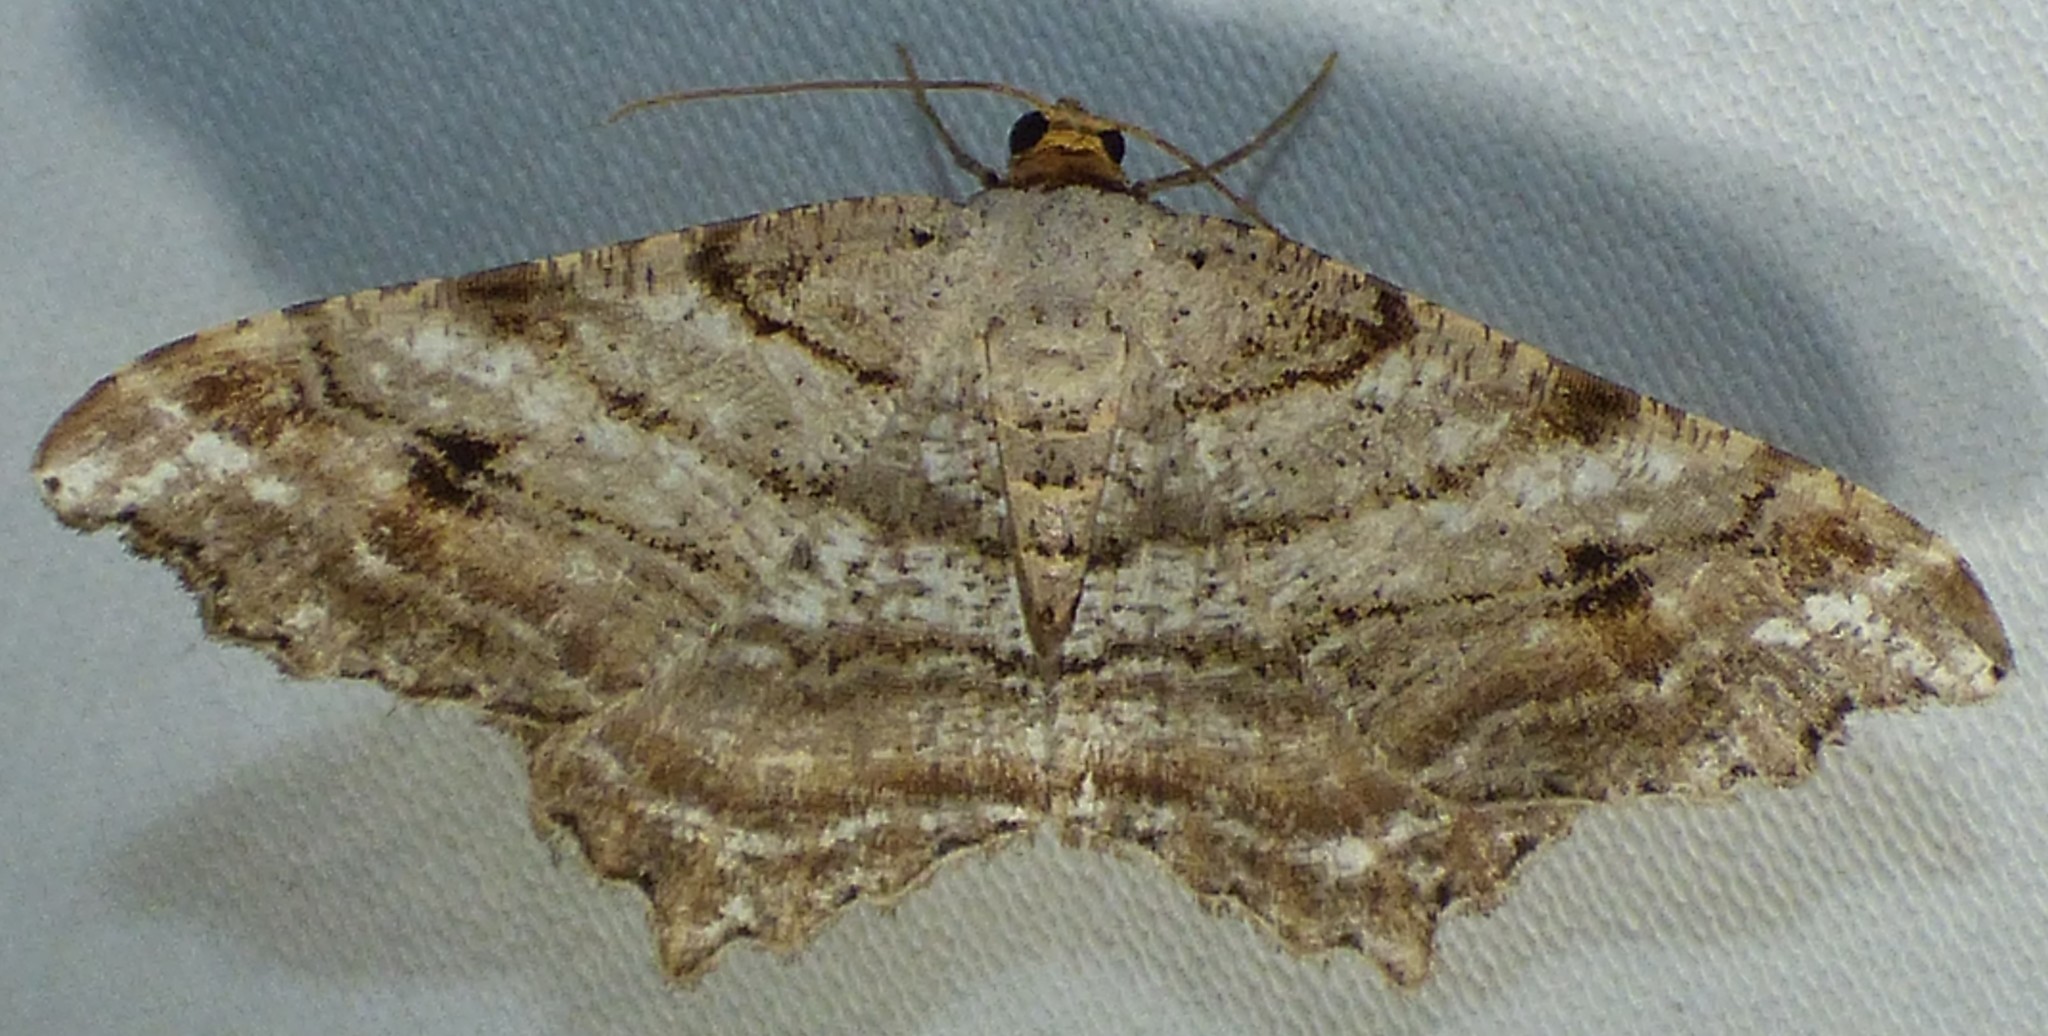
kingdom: Animalia
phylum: Arthropoda
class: Insecta
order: Lepidoptera
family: Geometridae
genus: Macaria
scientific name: Macaria multilineata
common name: Many-lined angle
